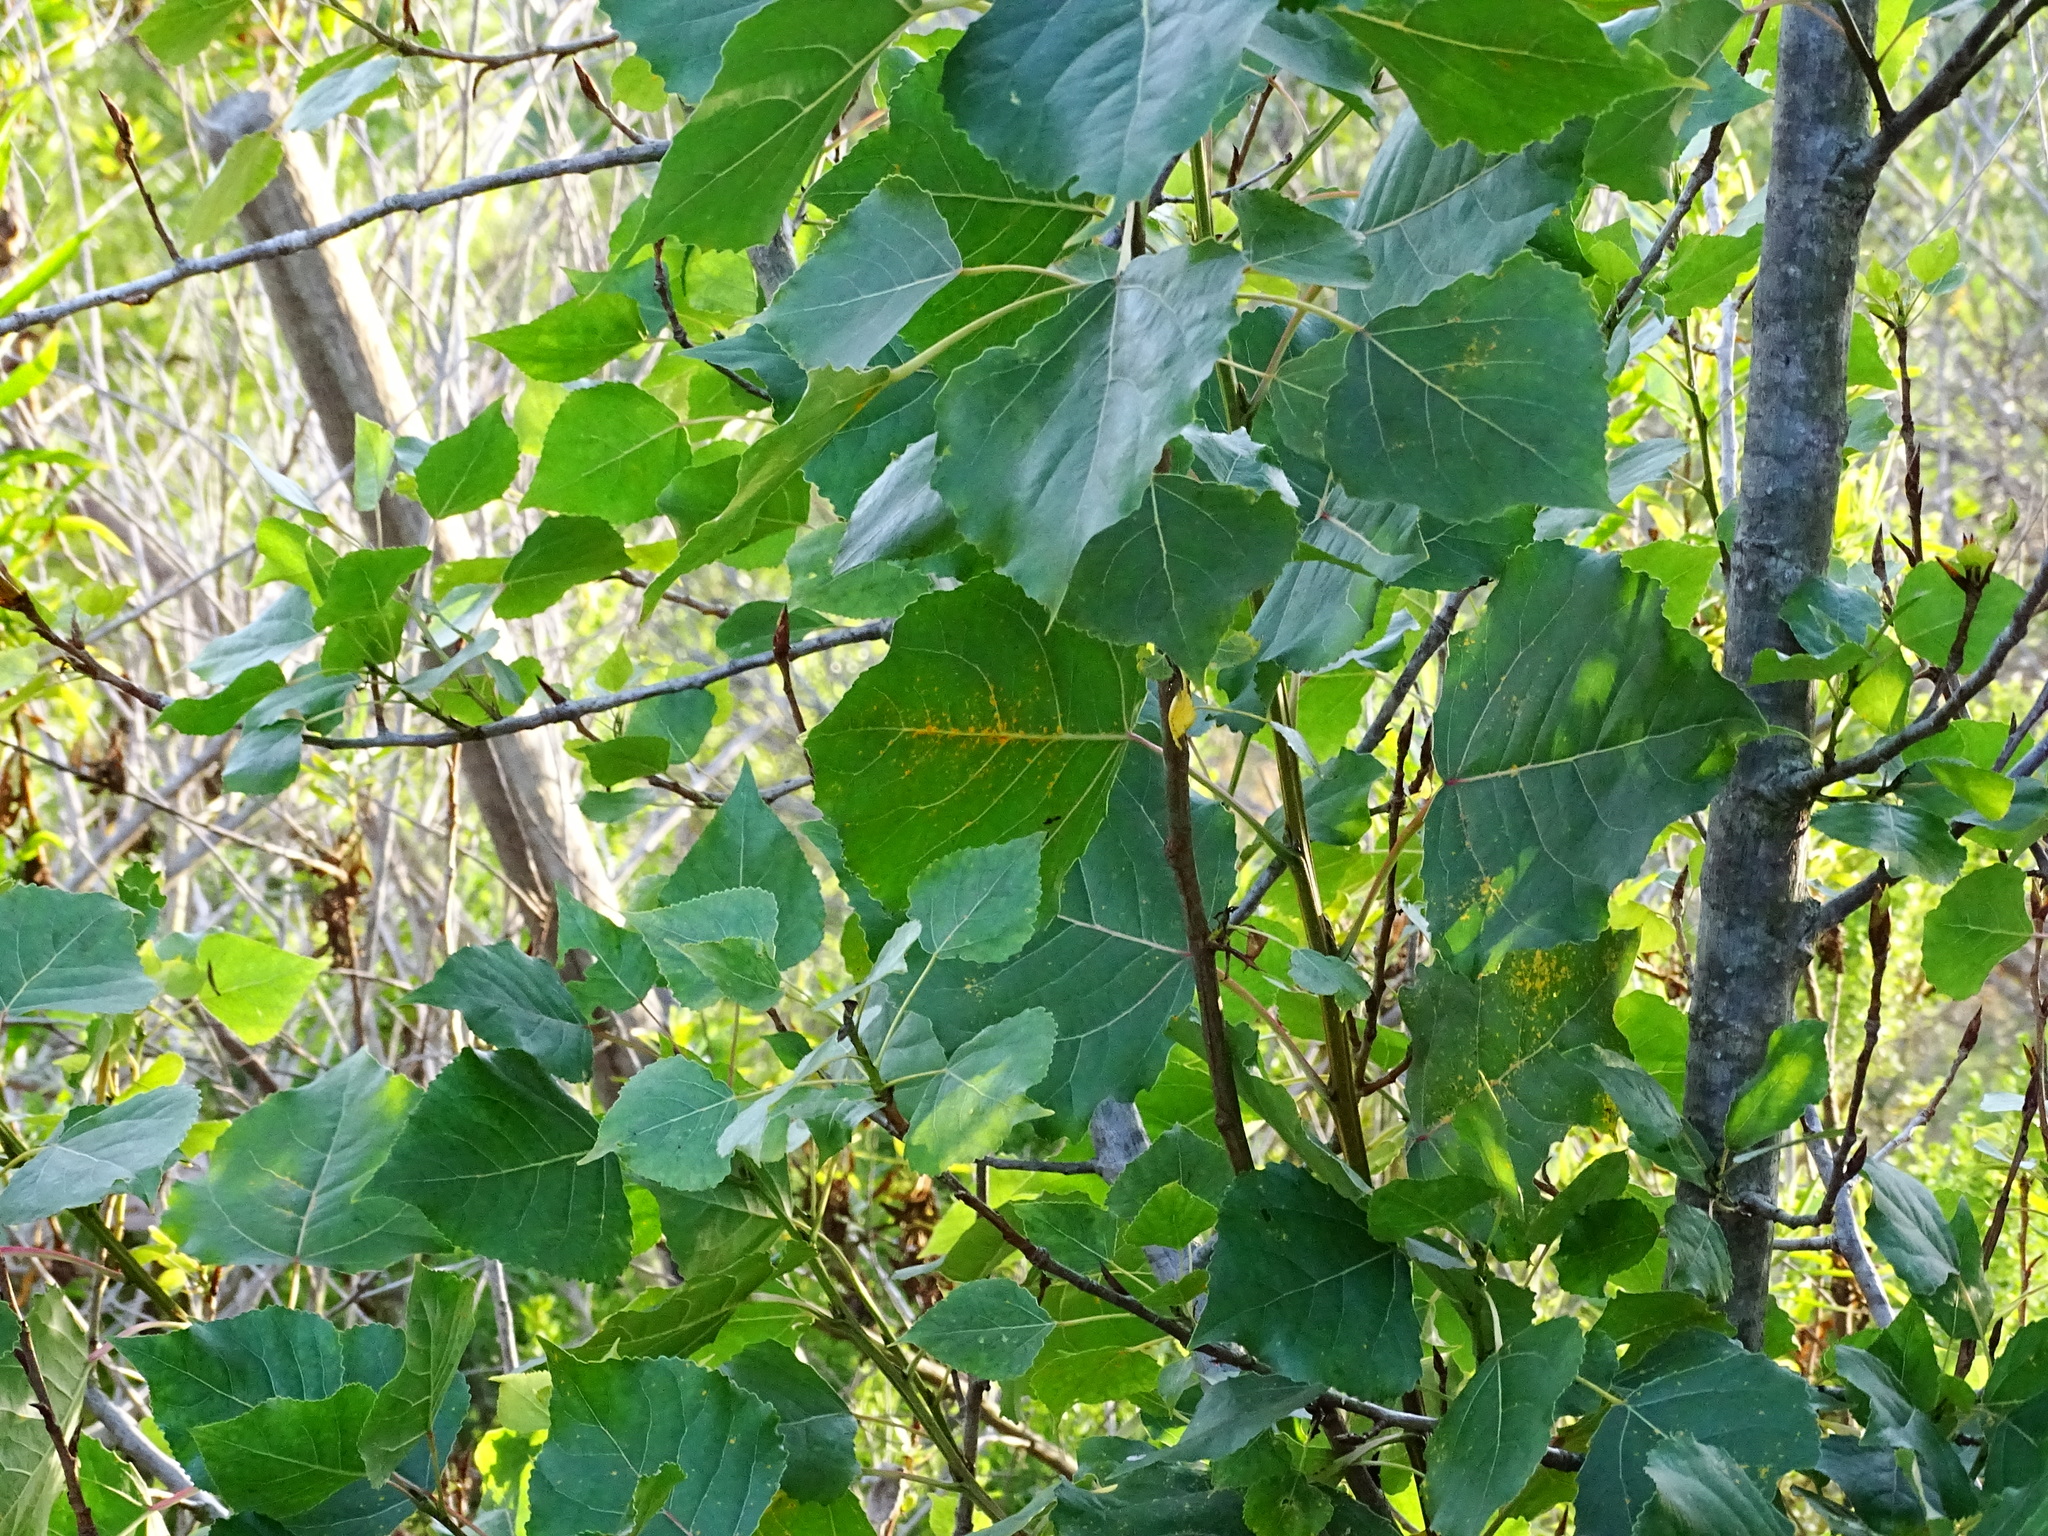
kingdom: Plantae
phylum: Tracheophyta
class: Magnoliopsida
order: Malpighiales
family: Salicaceae
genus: Populus
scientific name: Populus fremontii
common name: Fremont's cottonwood
